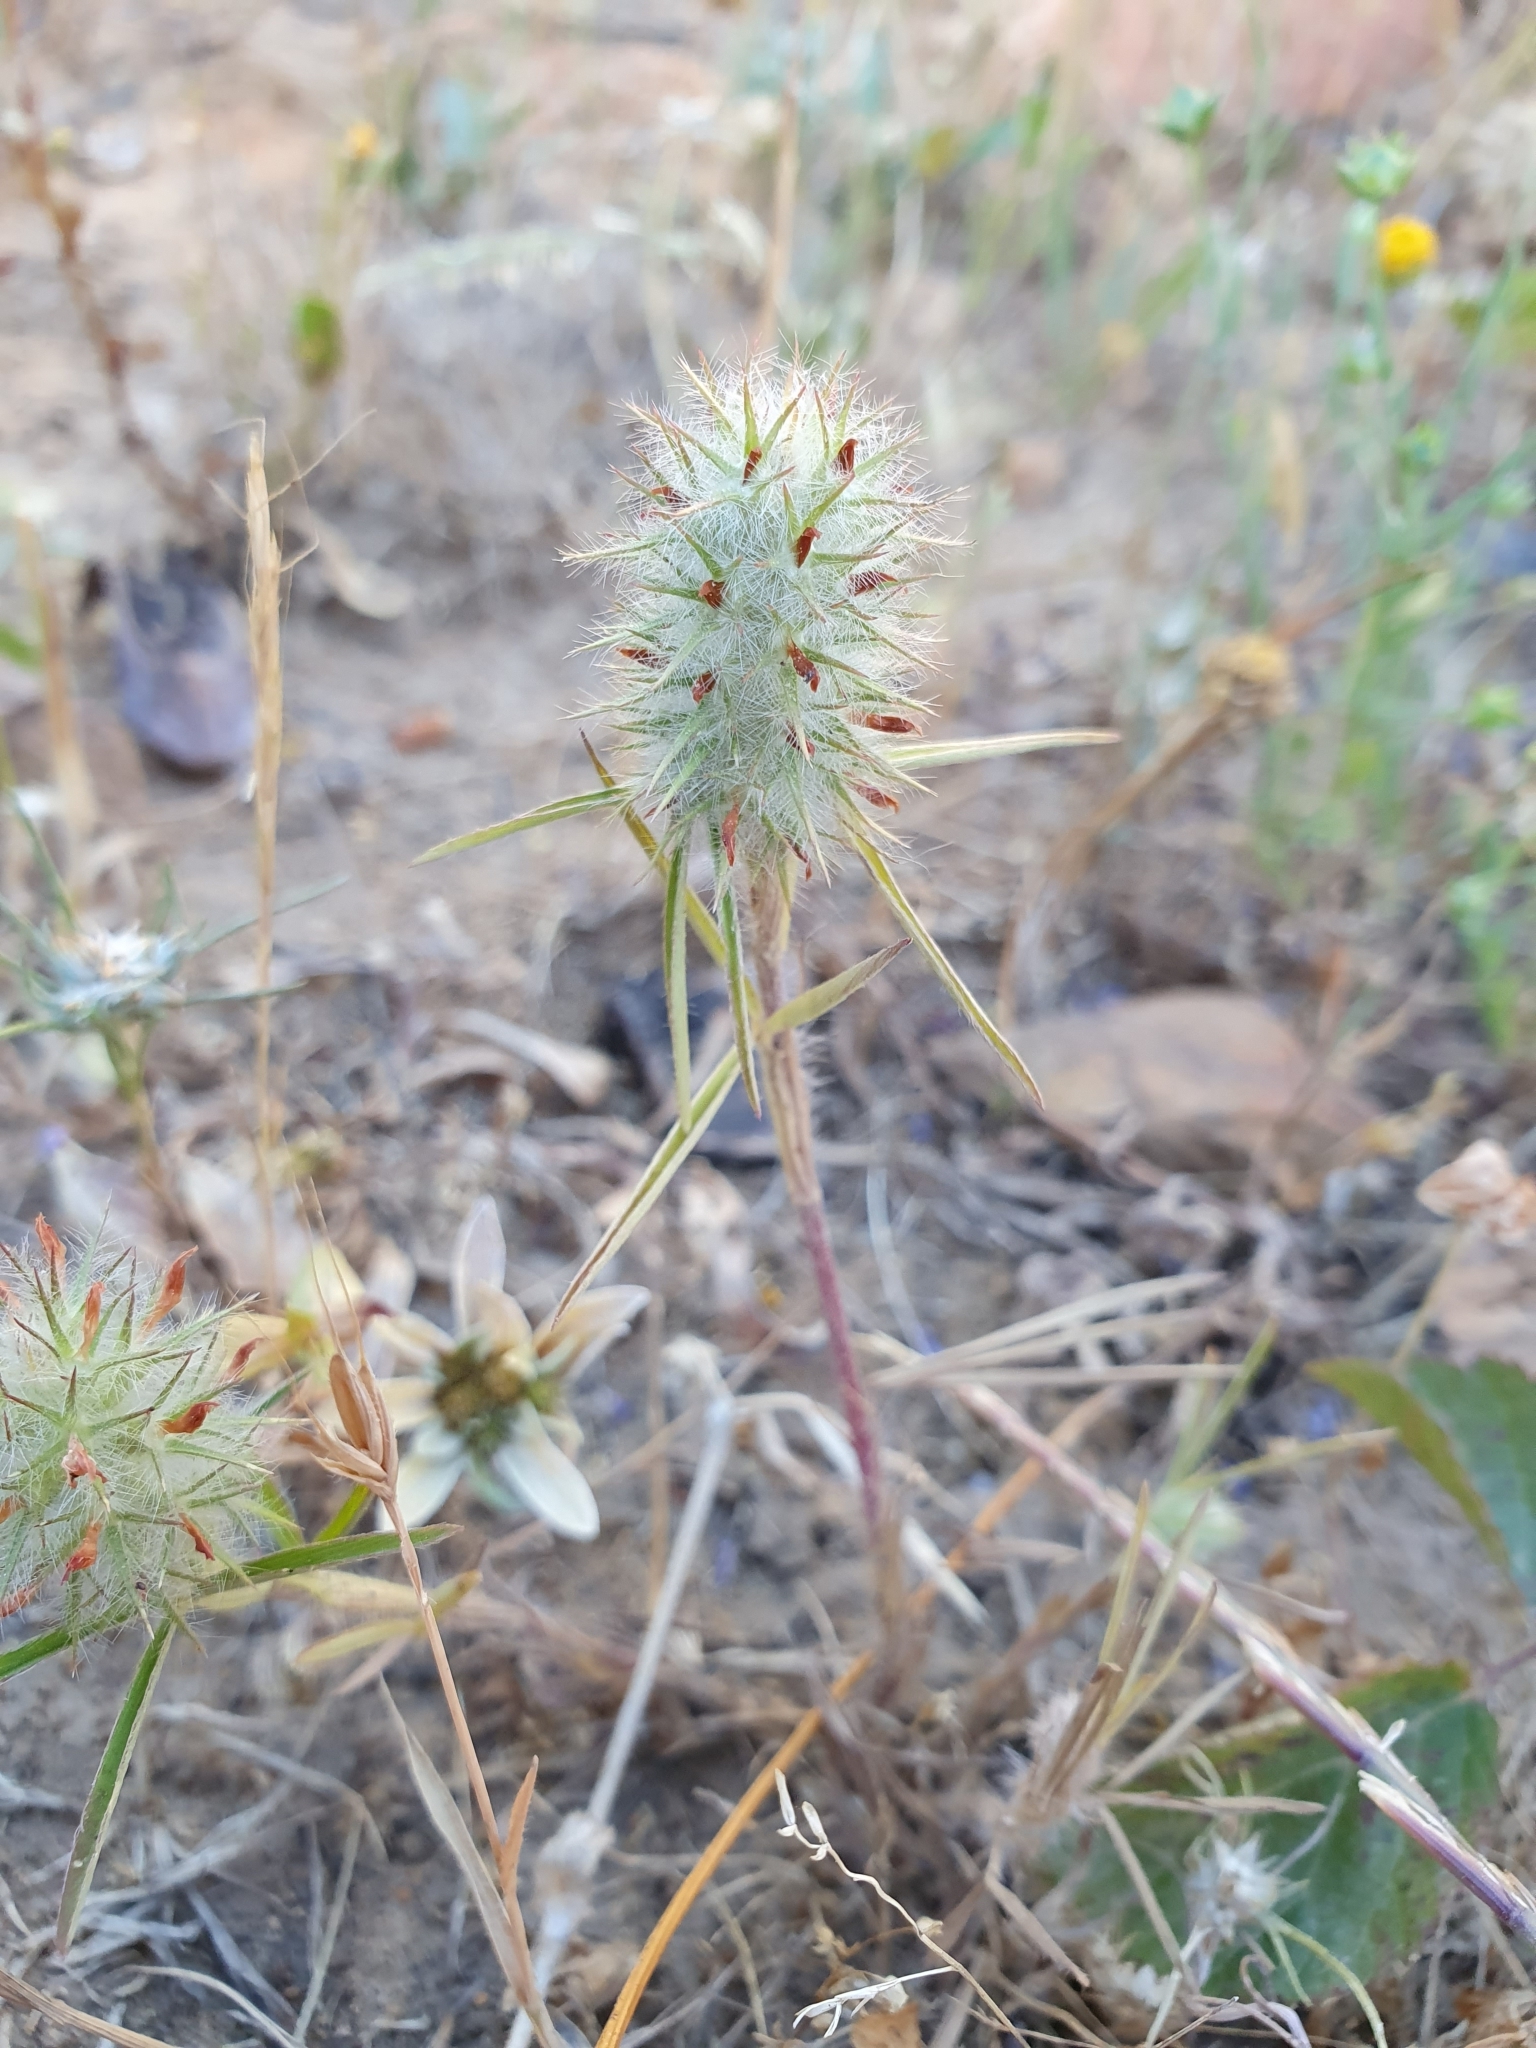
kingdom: Plantae
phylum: Tracheophyta
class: Magnoliopsida
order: Fabales
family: Fabaceae
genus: Trifolium
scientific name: Trifolium angustifolium
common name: Narrow clover
